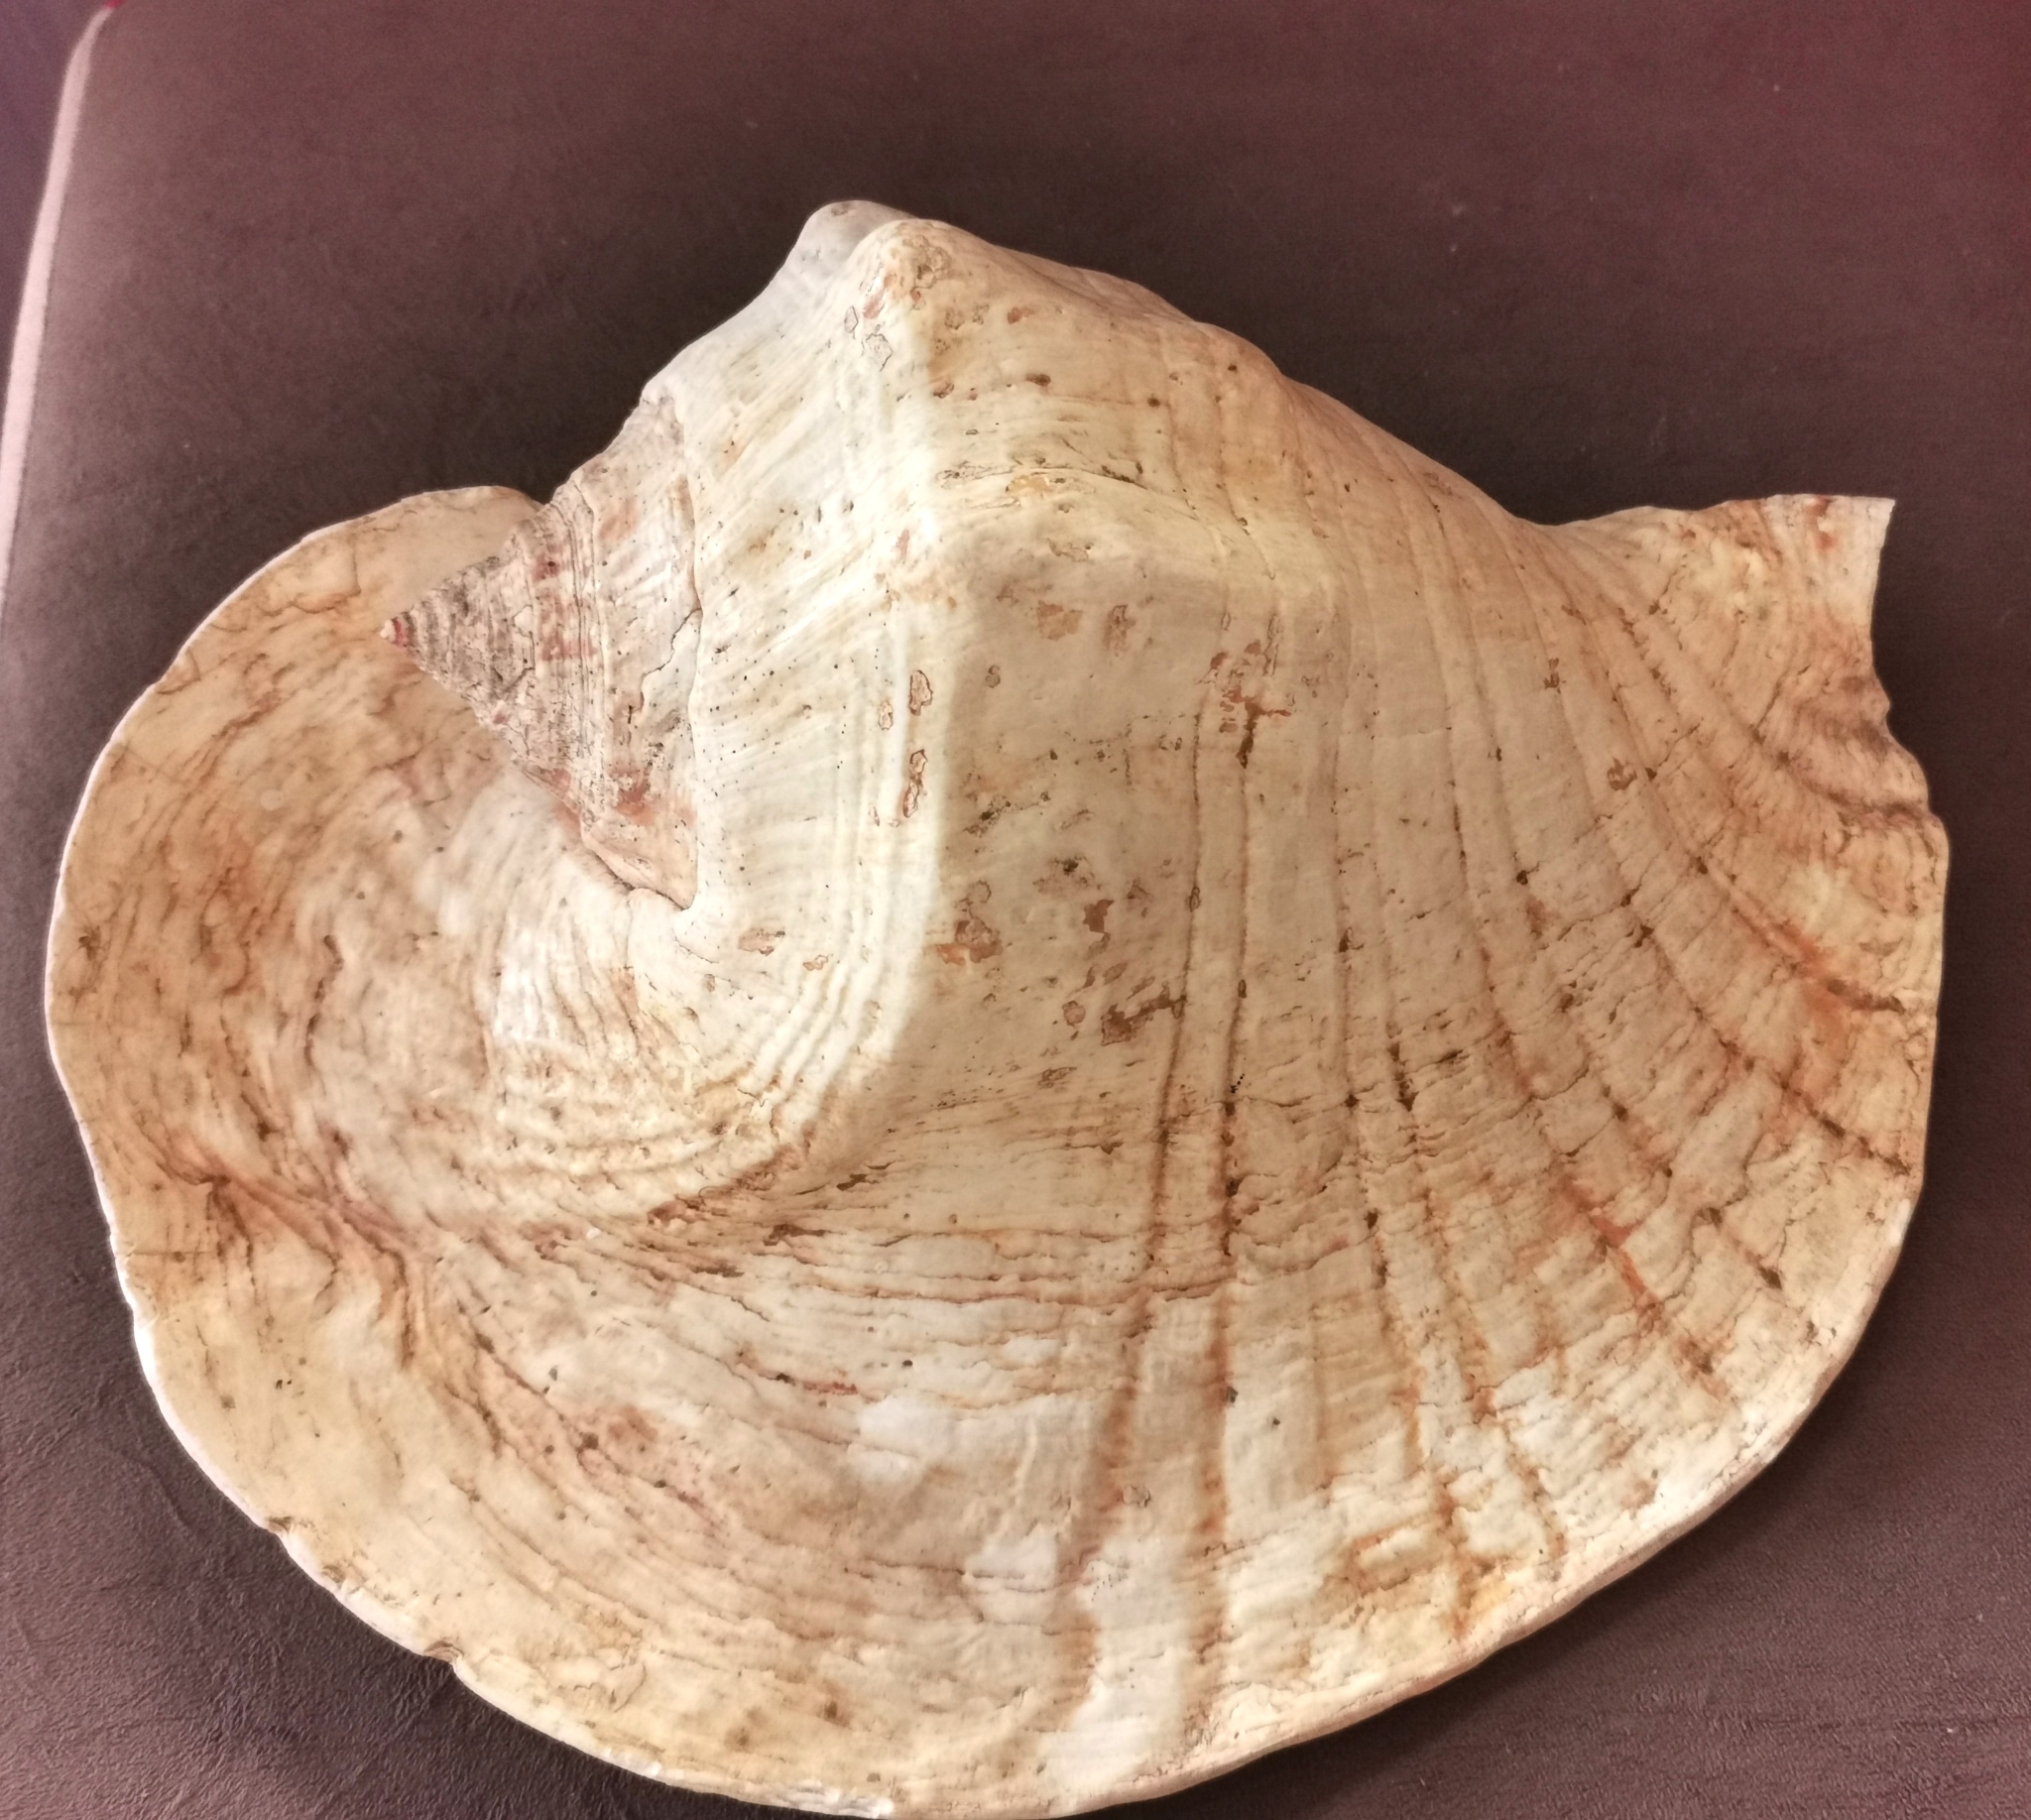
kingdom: Animalia
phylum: Mollusca
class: Gastropoda
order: Littorinimorpha
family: Strombidae
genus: Titanostrombus
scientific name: Titanostrombus goliath
